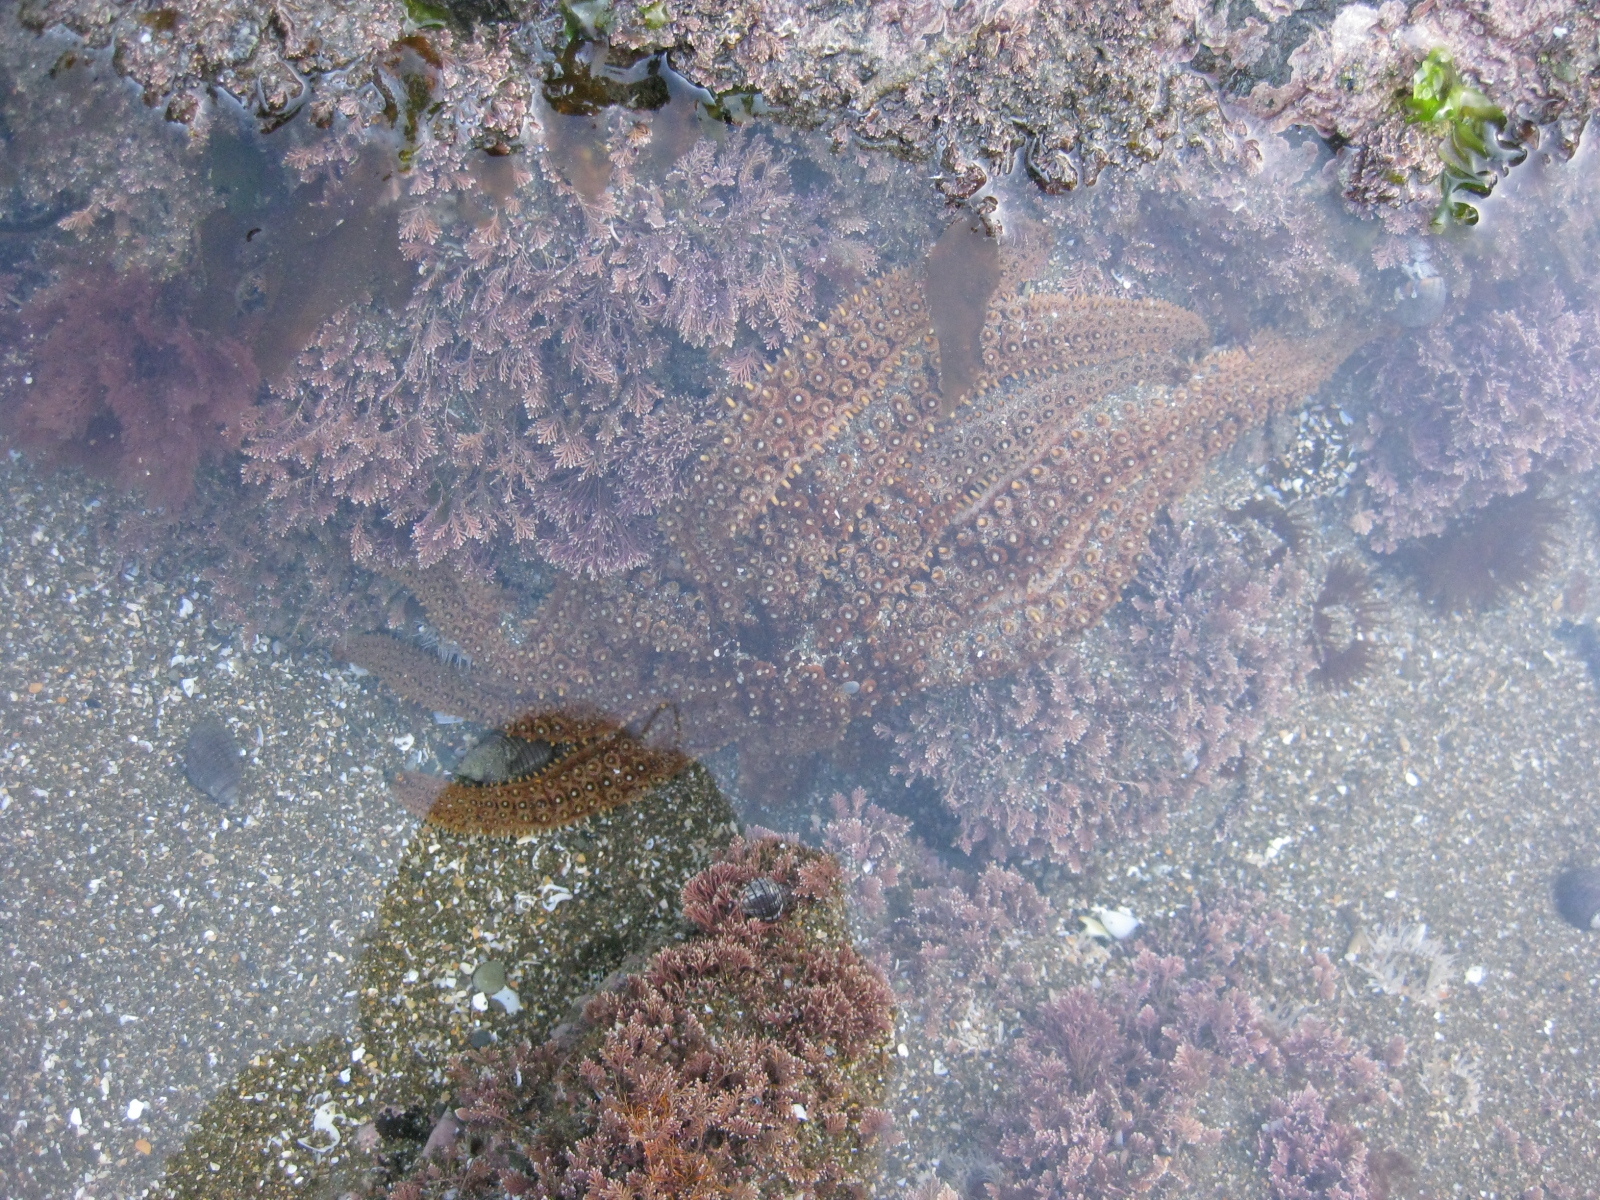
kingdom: Animalia
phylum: Echinodermata
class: Asteroidea
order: Forcipulatida
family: Asteriidae
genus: Coscinasterias
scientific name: Coscinasterias muricata
